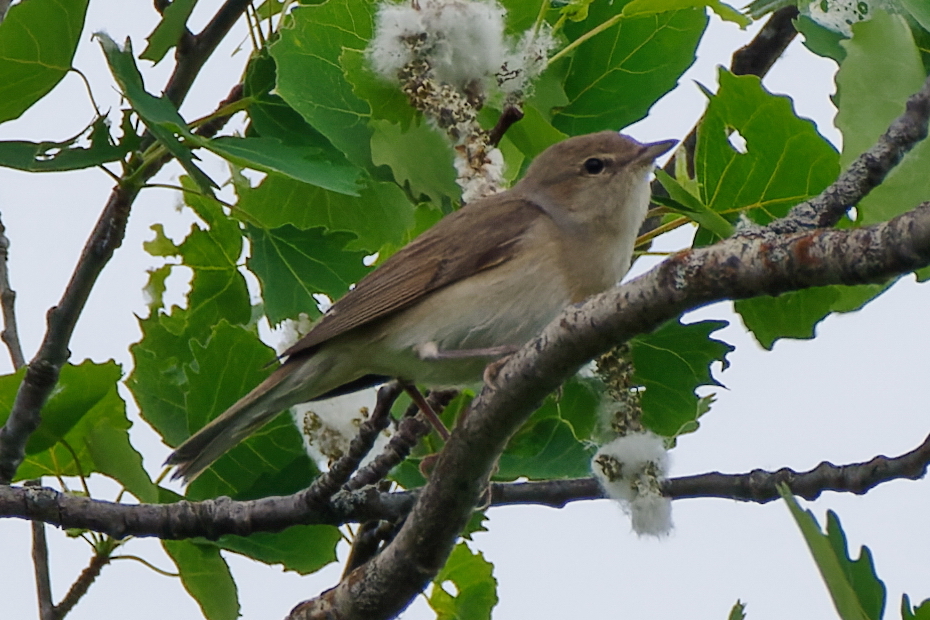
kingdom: Animalia
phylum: Chordata
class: Aves
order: Passeriformes
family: Sylviidae
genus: Sylvia
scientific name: Sylvia borin
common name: Garden warbler
